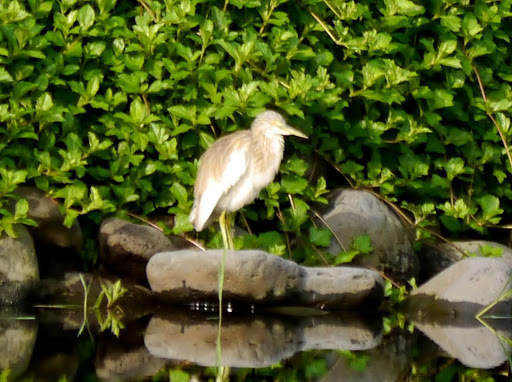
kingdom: Animalia
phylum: Chordata
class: Aves
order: Pelecaniformes
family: Ardeidae
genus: Ardeola
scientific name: Ardeola ralloides
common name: Squacco heron
